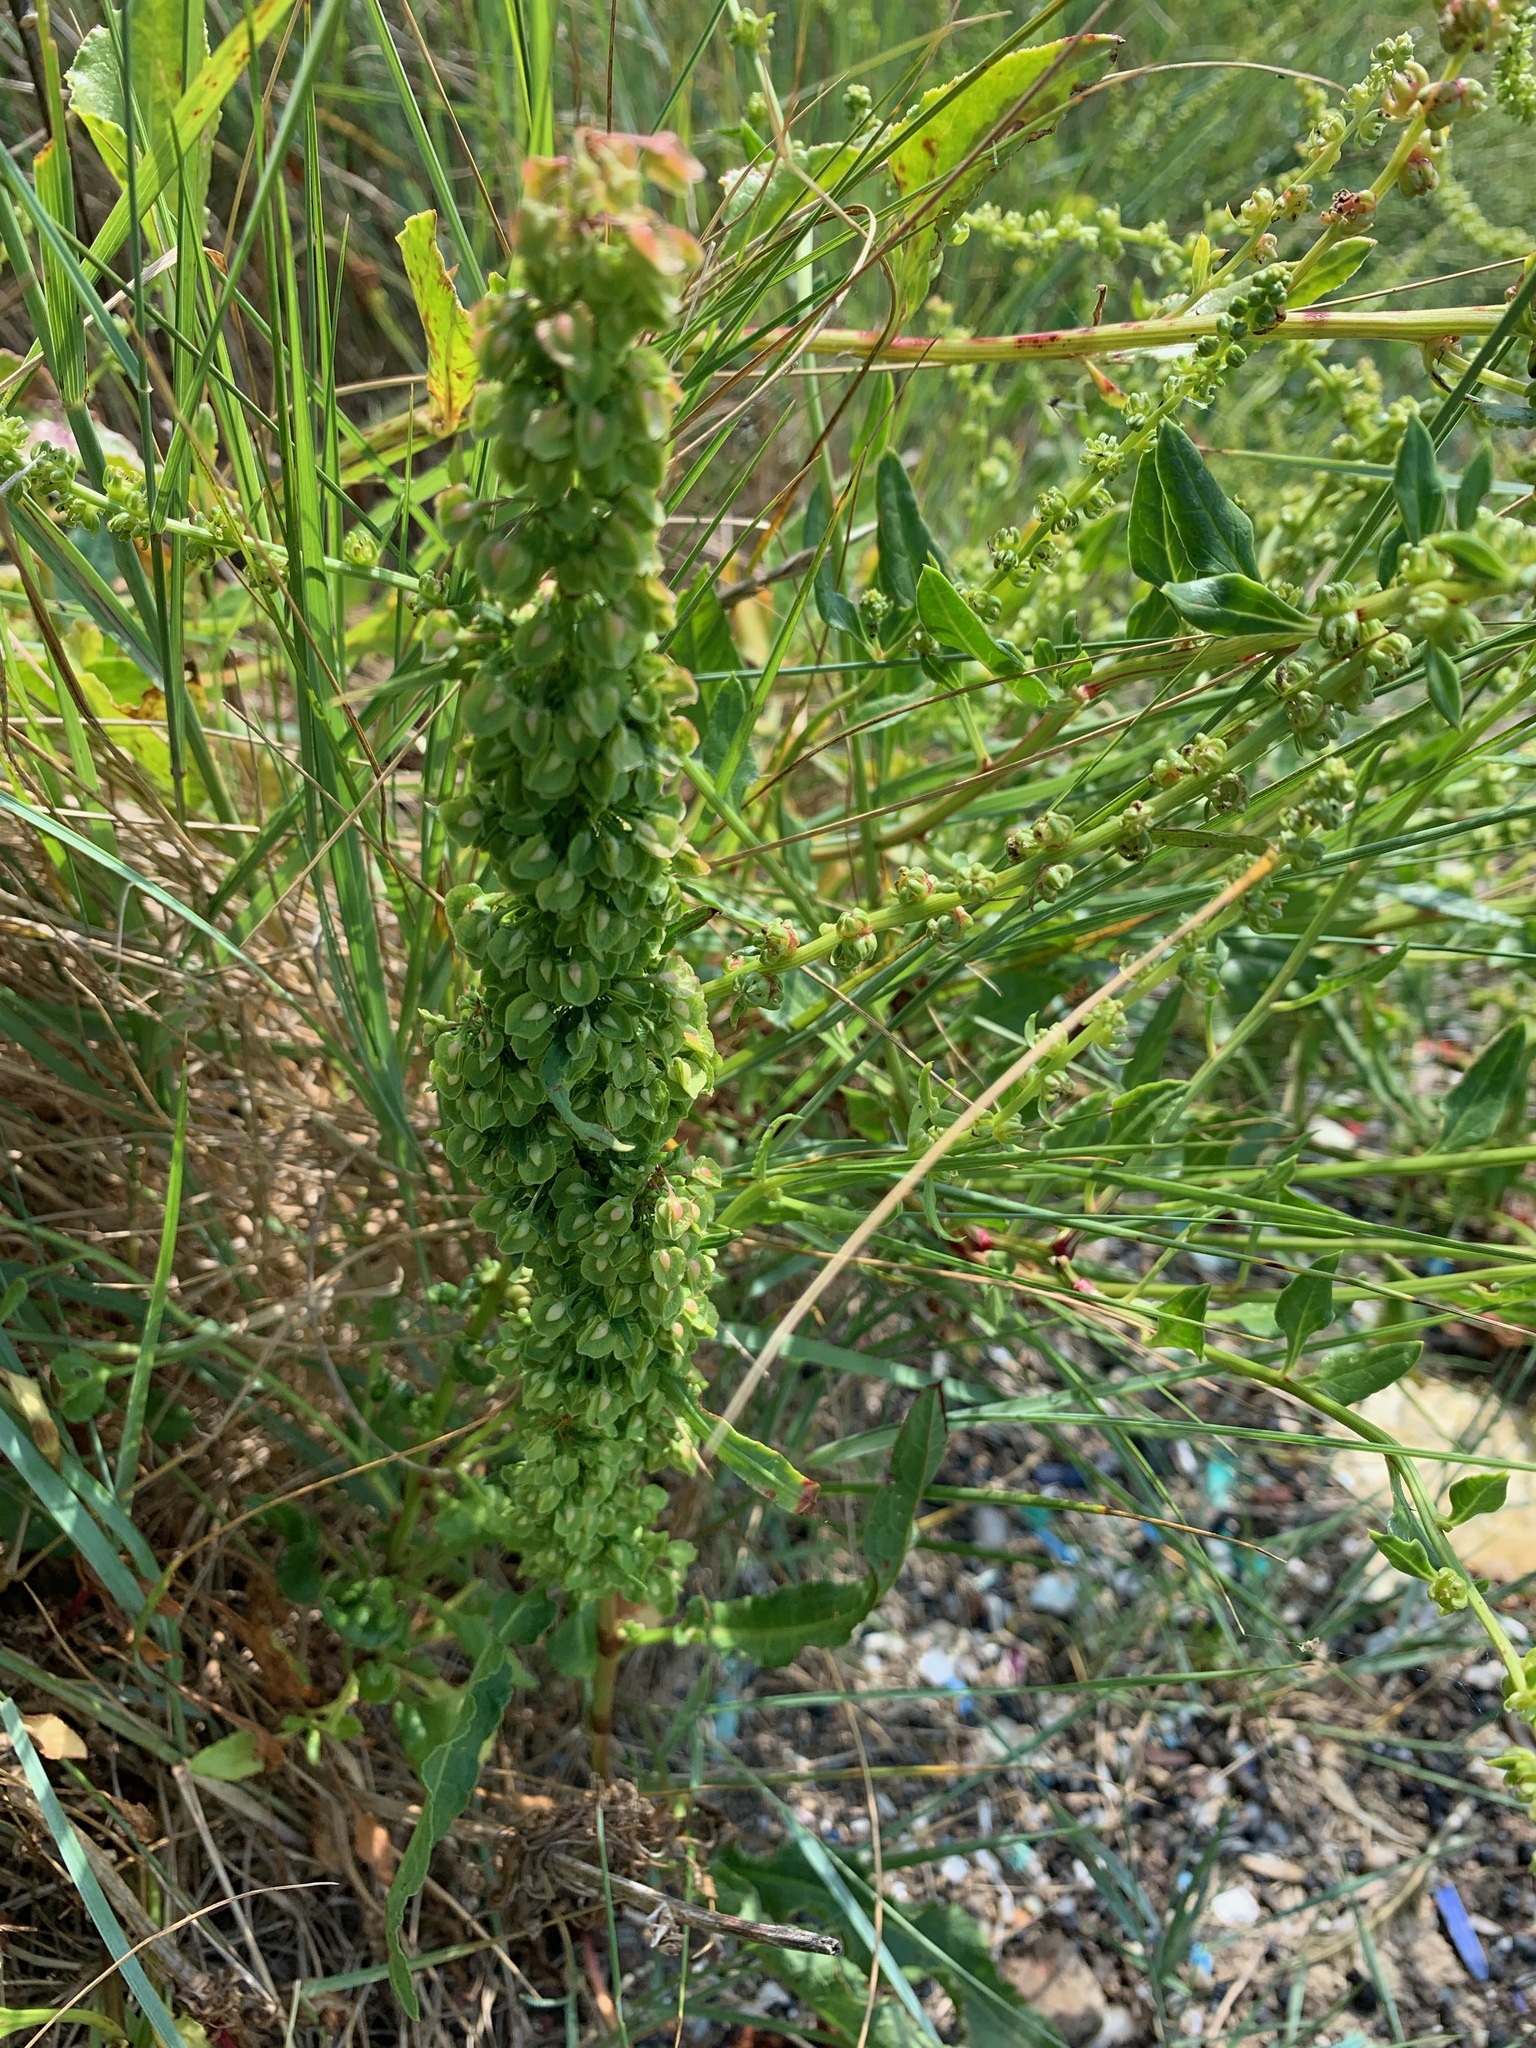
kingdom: Plantae
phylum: Tracheophyta
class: Magnoliopsida
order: Caryophyllales
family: Polygonaceae
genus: Rumex
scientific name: Rumex crispus
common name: Curled dock
